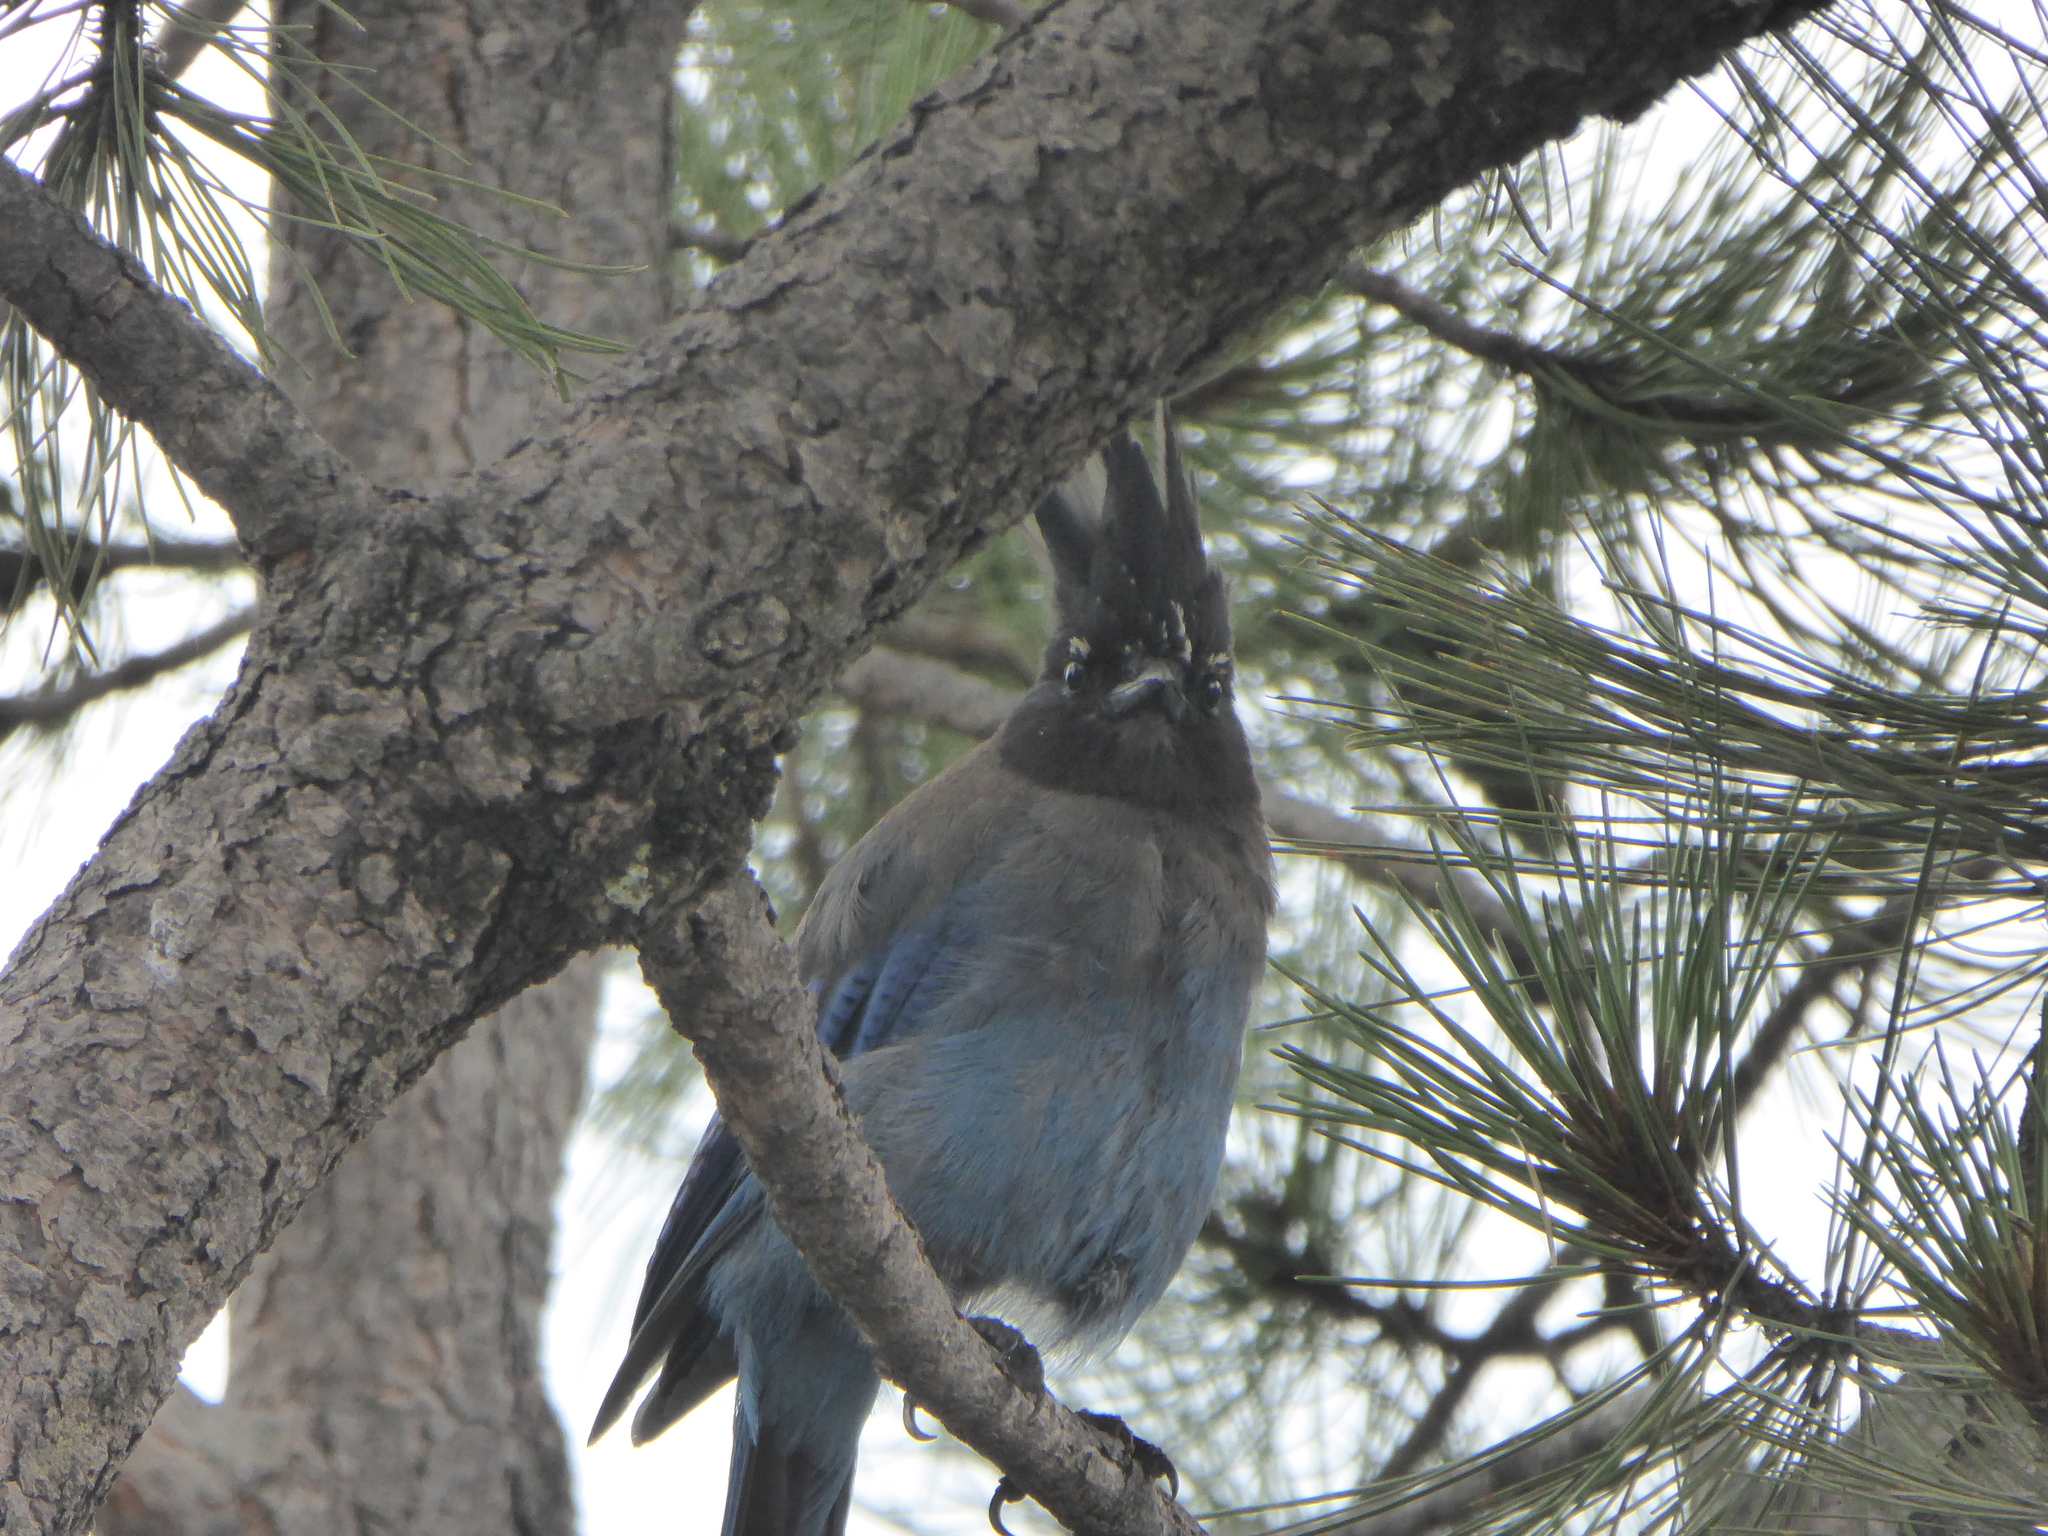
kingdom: Animalia
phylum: Chordata
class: Aves
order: Passeriformes
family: Corvidae
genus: Cyanocitta
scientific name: Cyanocitta stelleri
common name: Steller's jay
